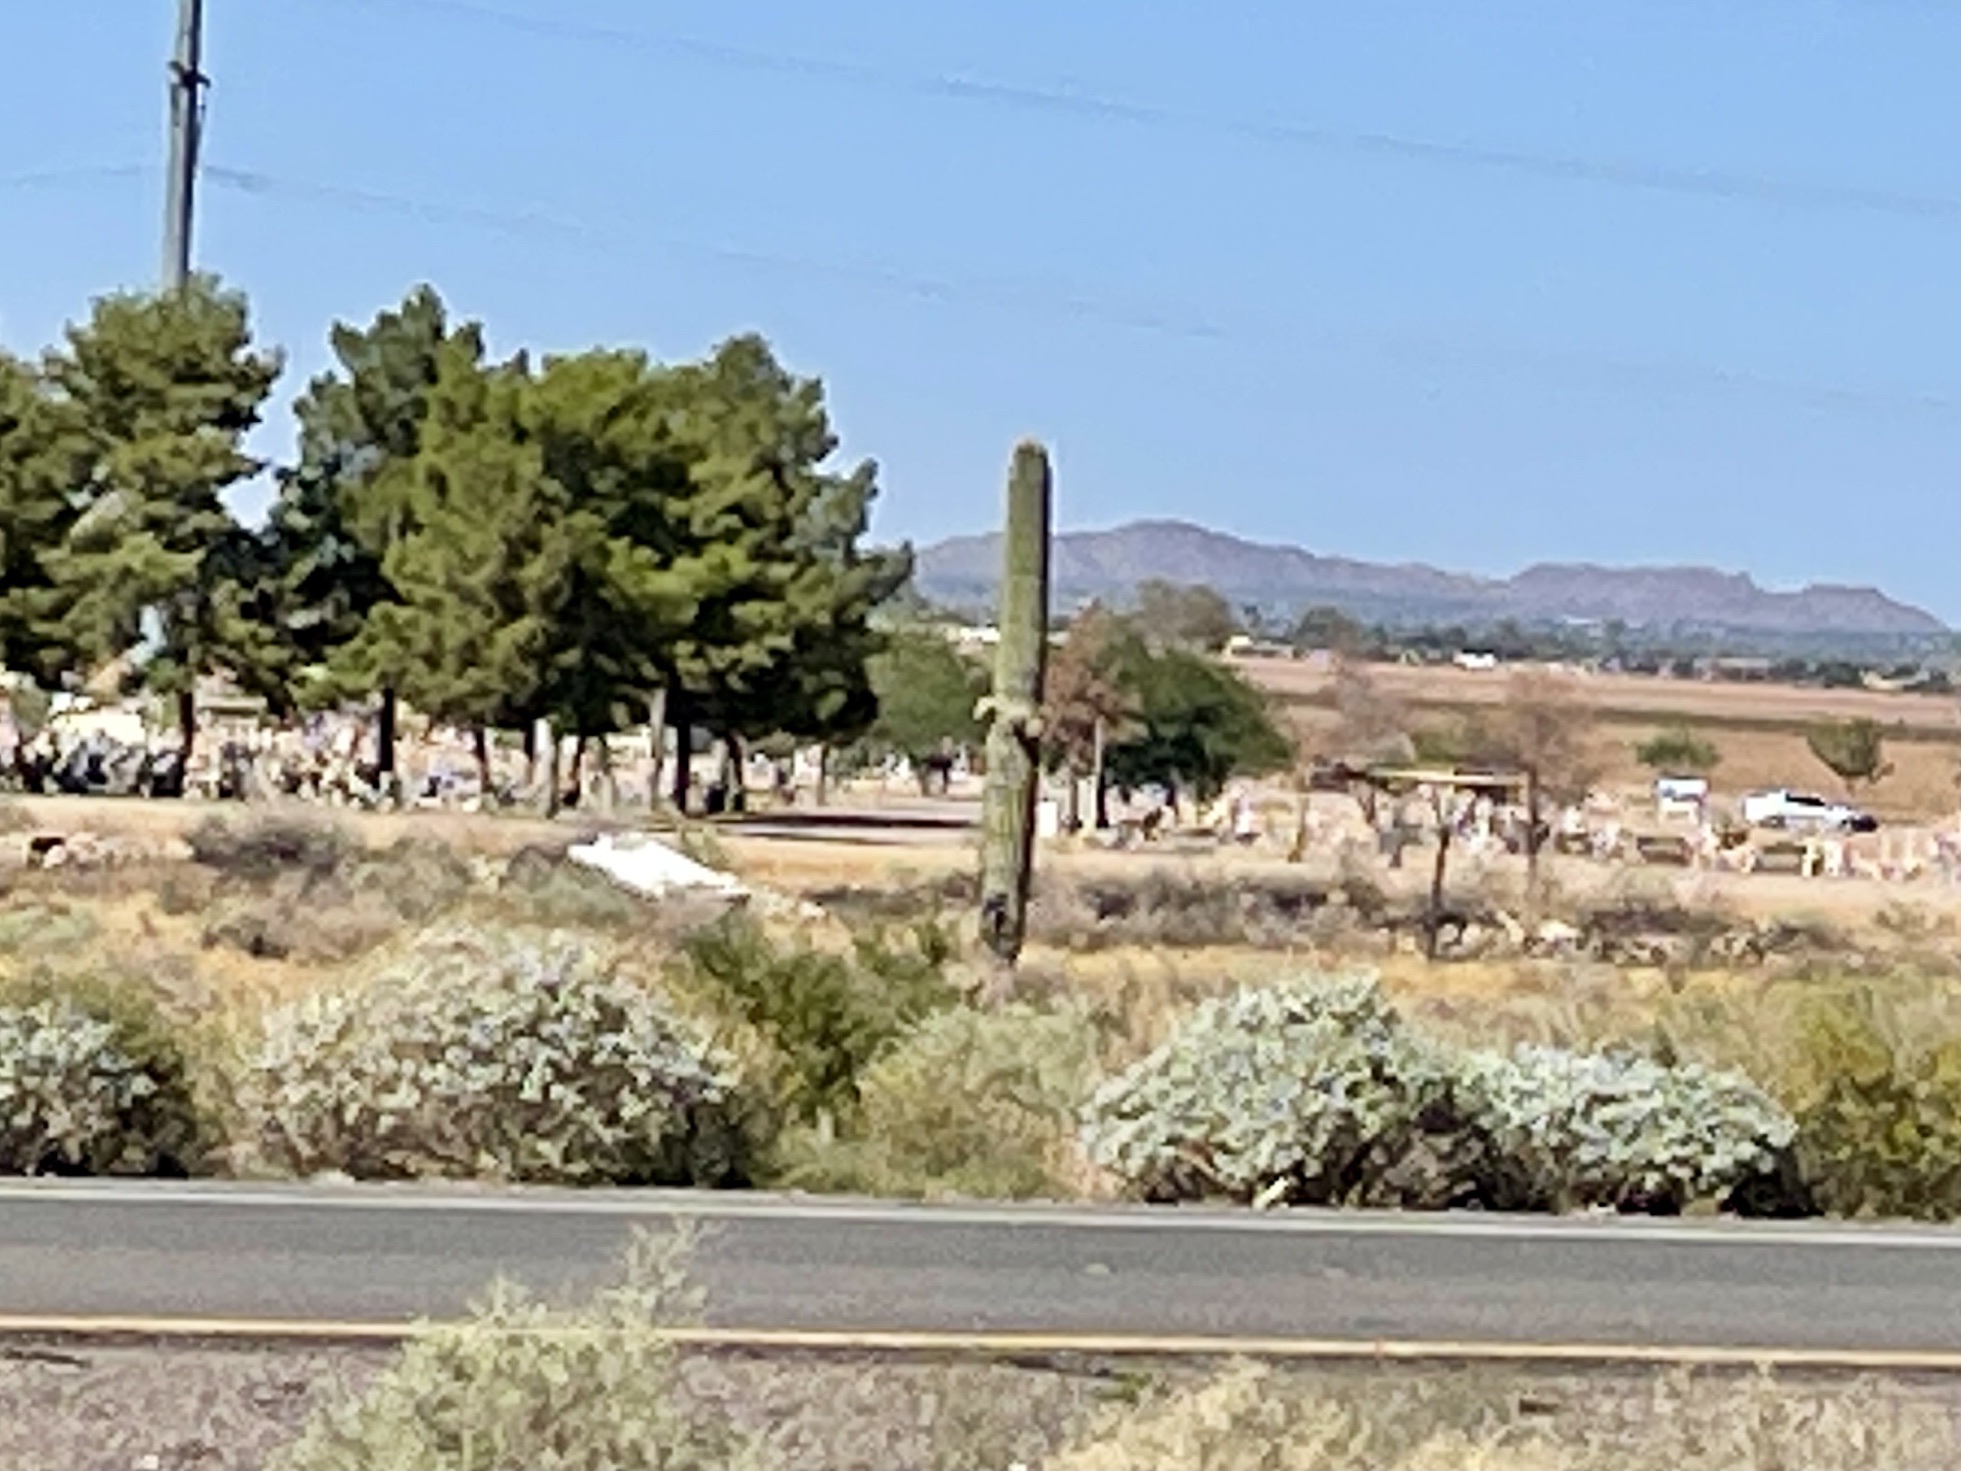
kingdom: Plantae
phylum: Tracheophyta
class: Magnoliopsida
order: Caryophyllales
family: Cactaceae
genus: Carnegiea
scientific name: Carnegiea gigantea
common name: Saguaro
